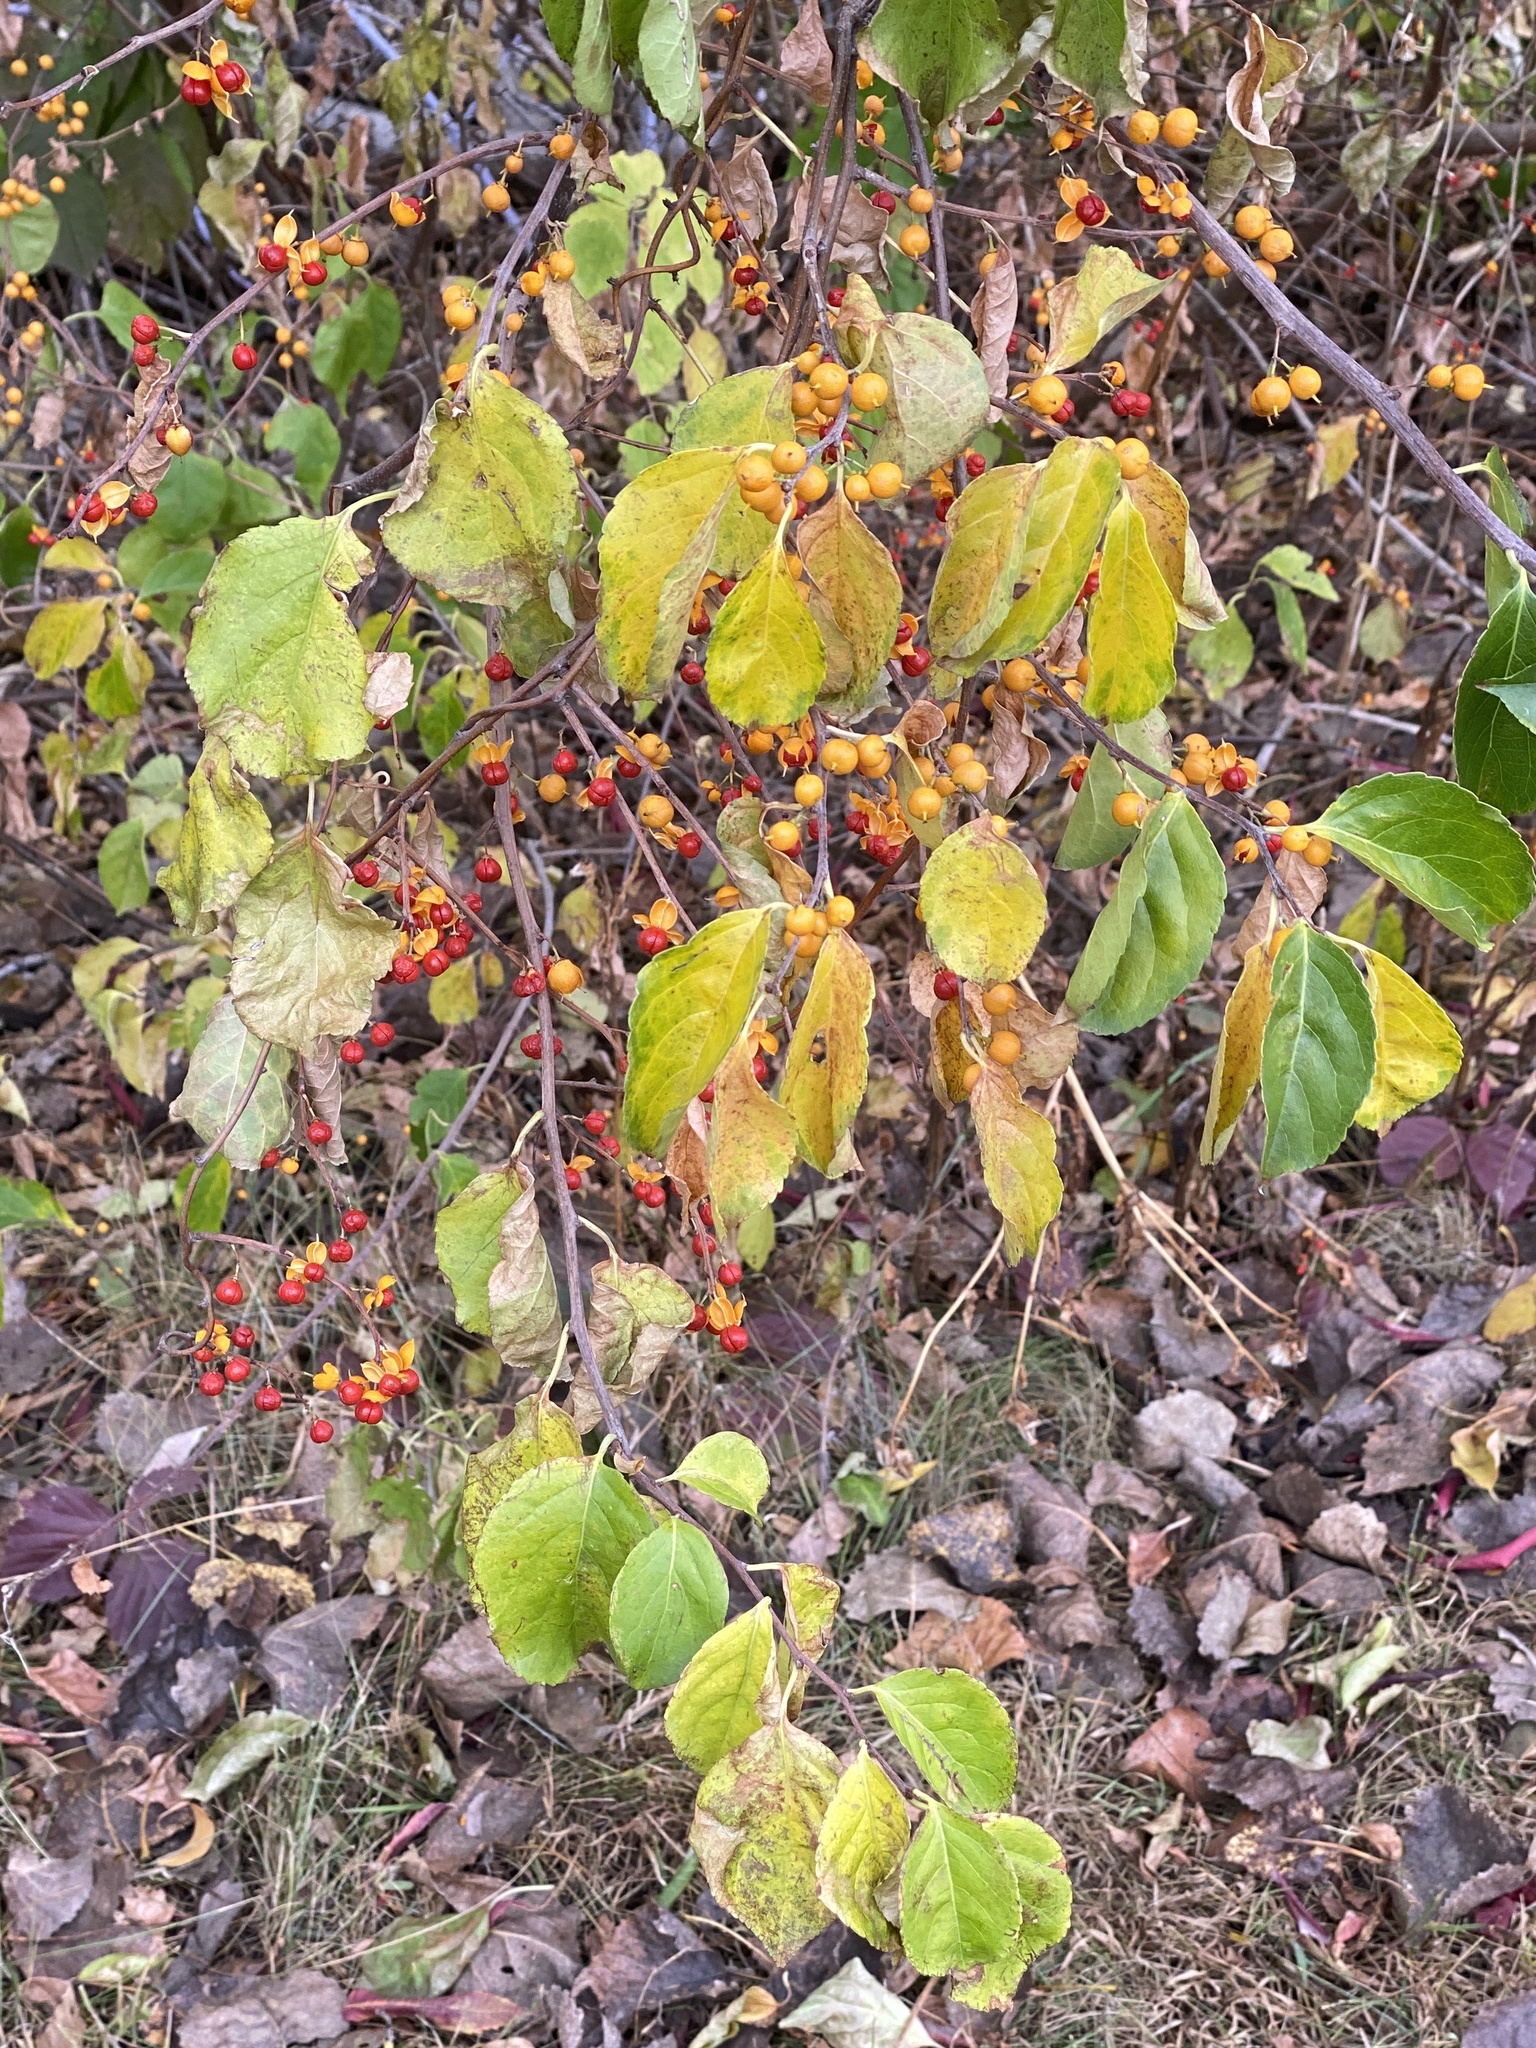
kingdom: Plantae
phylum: Tracheophyta
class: Magnoliopsida
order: Celastrales
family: Celastraceae
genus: Celastrus
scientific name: Celastrus orbiculatus
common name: Oriental bittersweet
